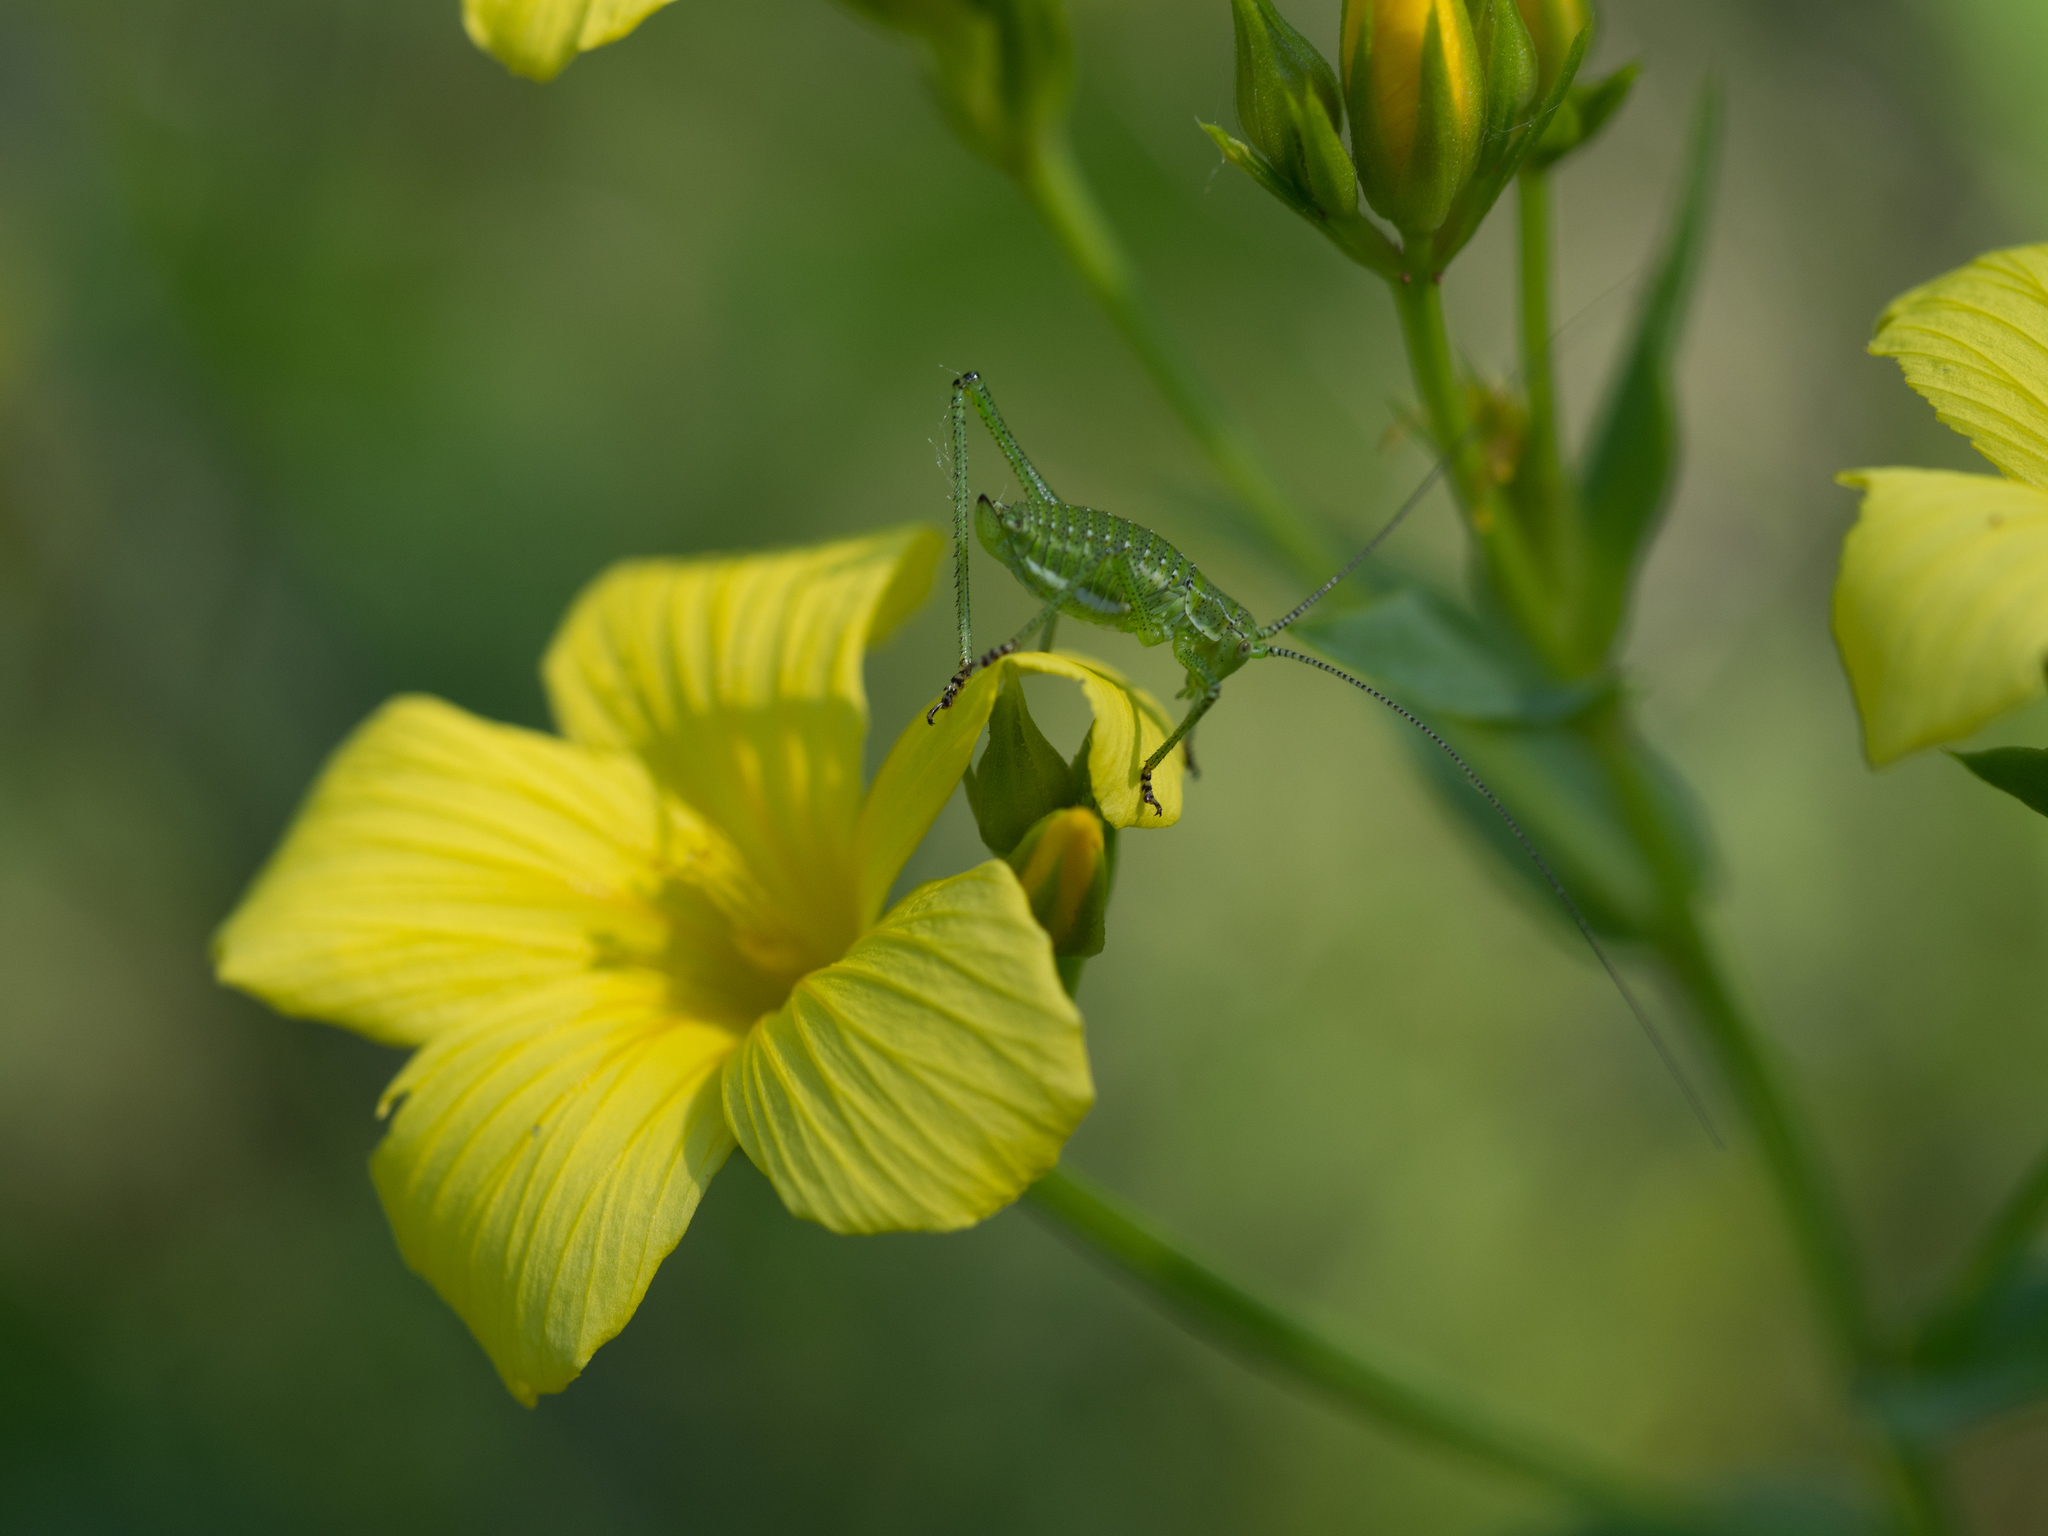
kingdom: Plantae
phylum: Tracheophyta
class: Magnoliopsida
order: Malpighiales
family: Linaceae
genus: Linum
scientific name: Linum flavum
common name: Yellow flax
